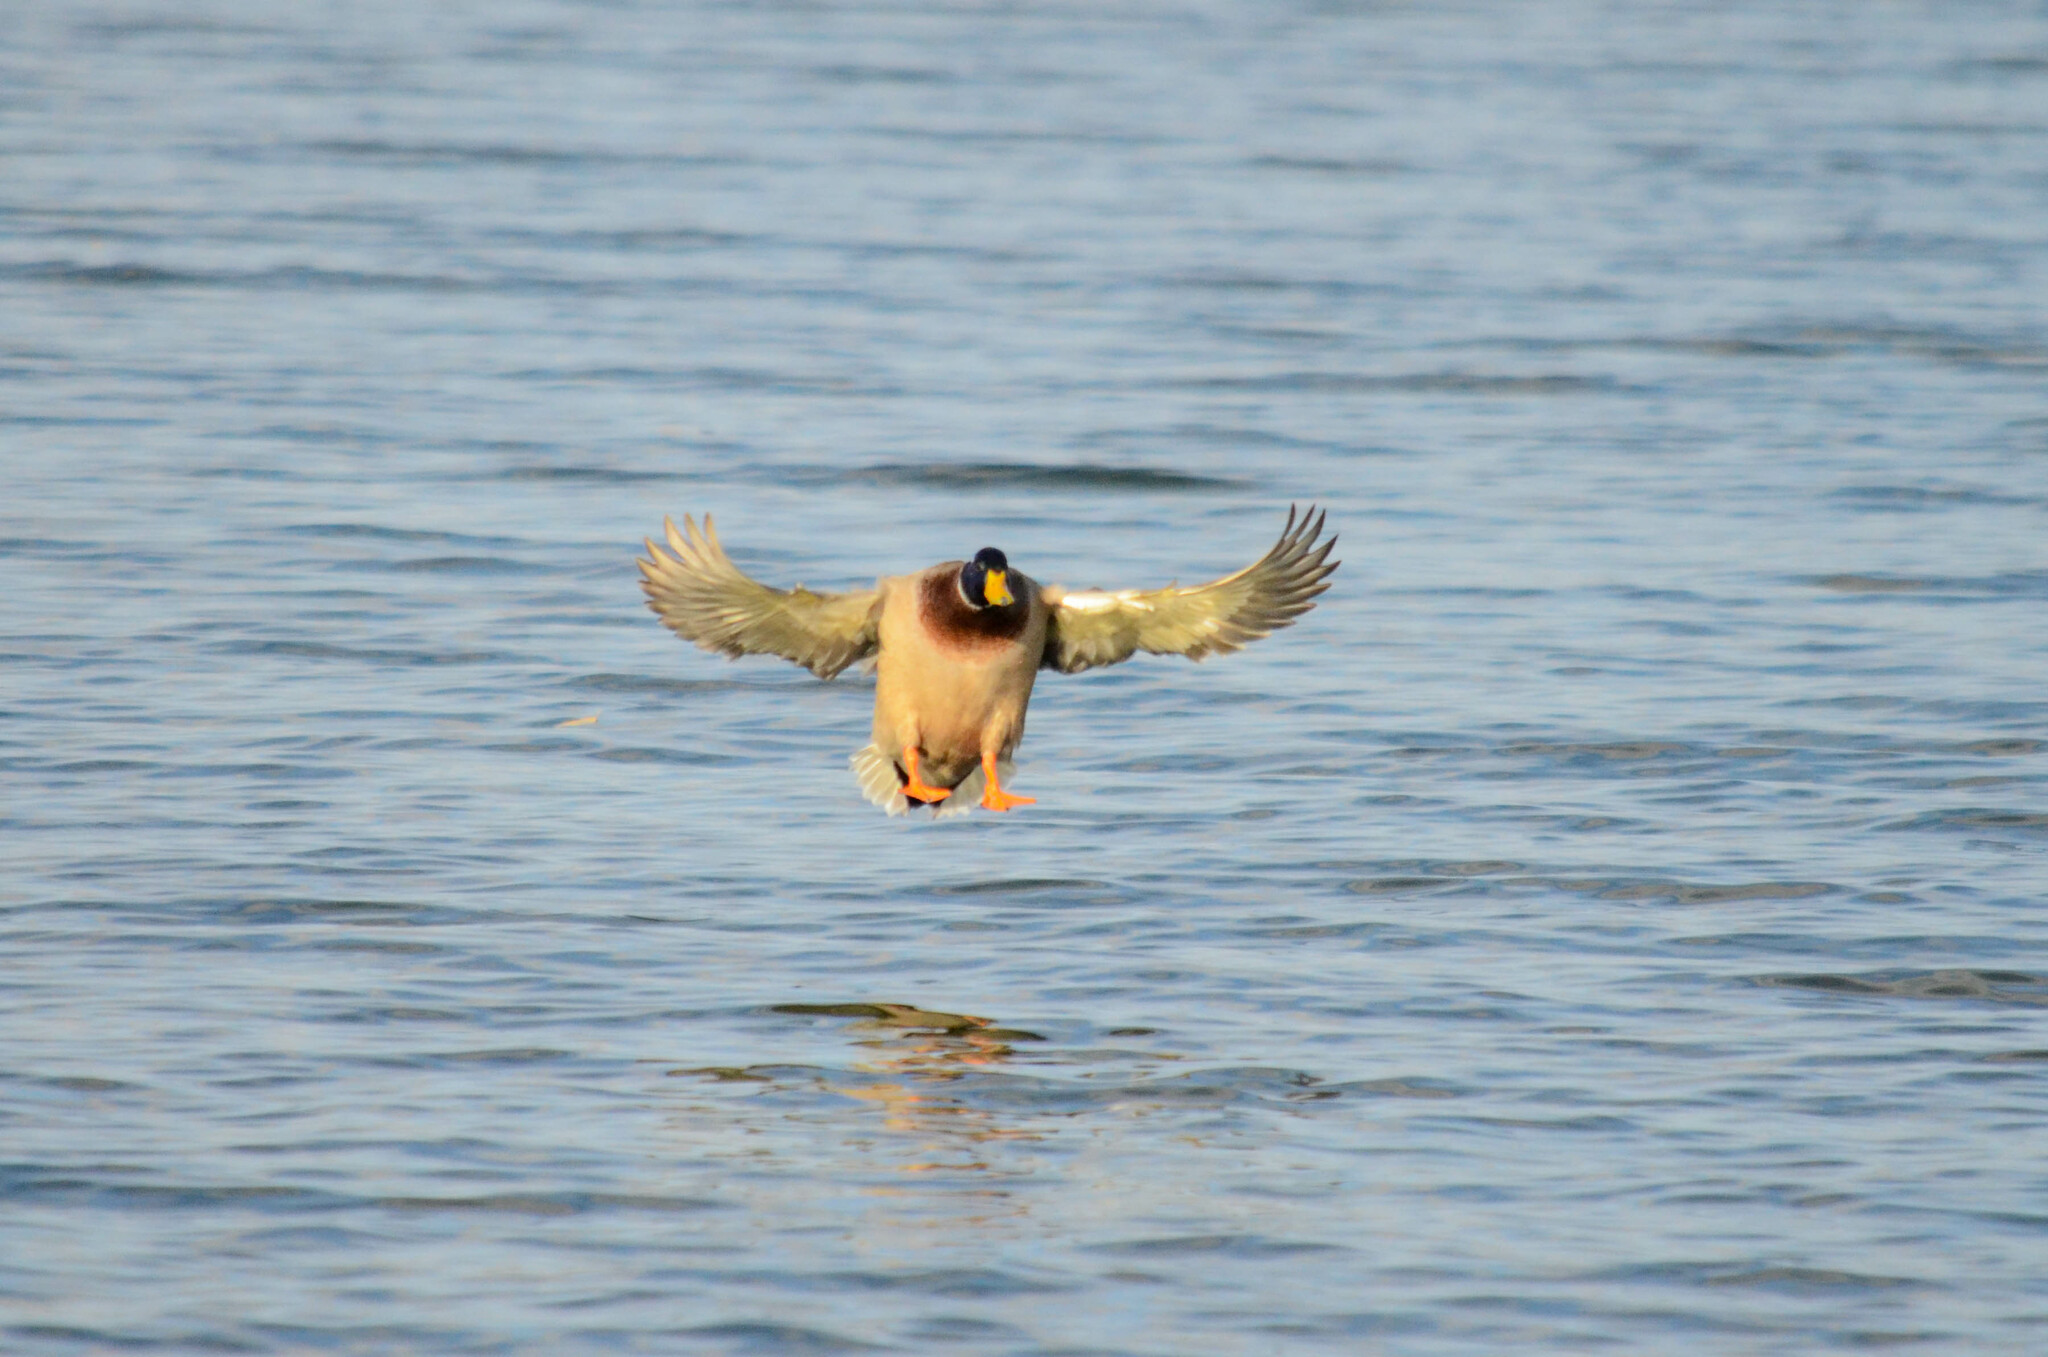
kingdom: Animalia
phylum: Chordata
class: Aves
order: Anseriformes
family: Anatidae
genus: Anas
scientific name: Anas platyrhynchos
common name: Mallard
